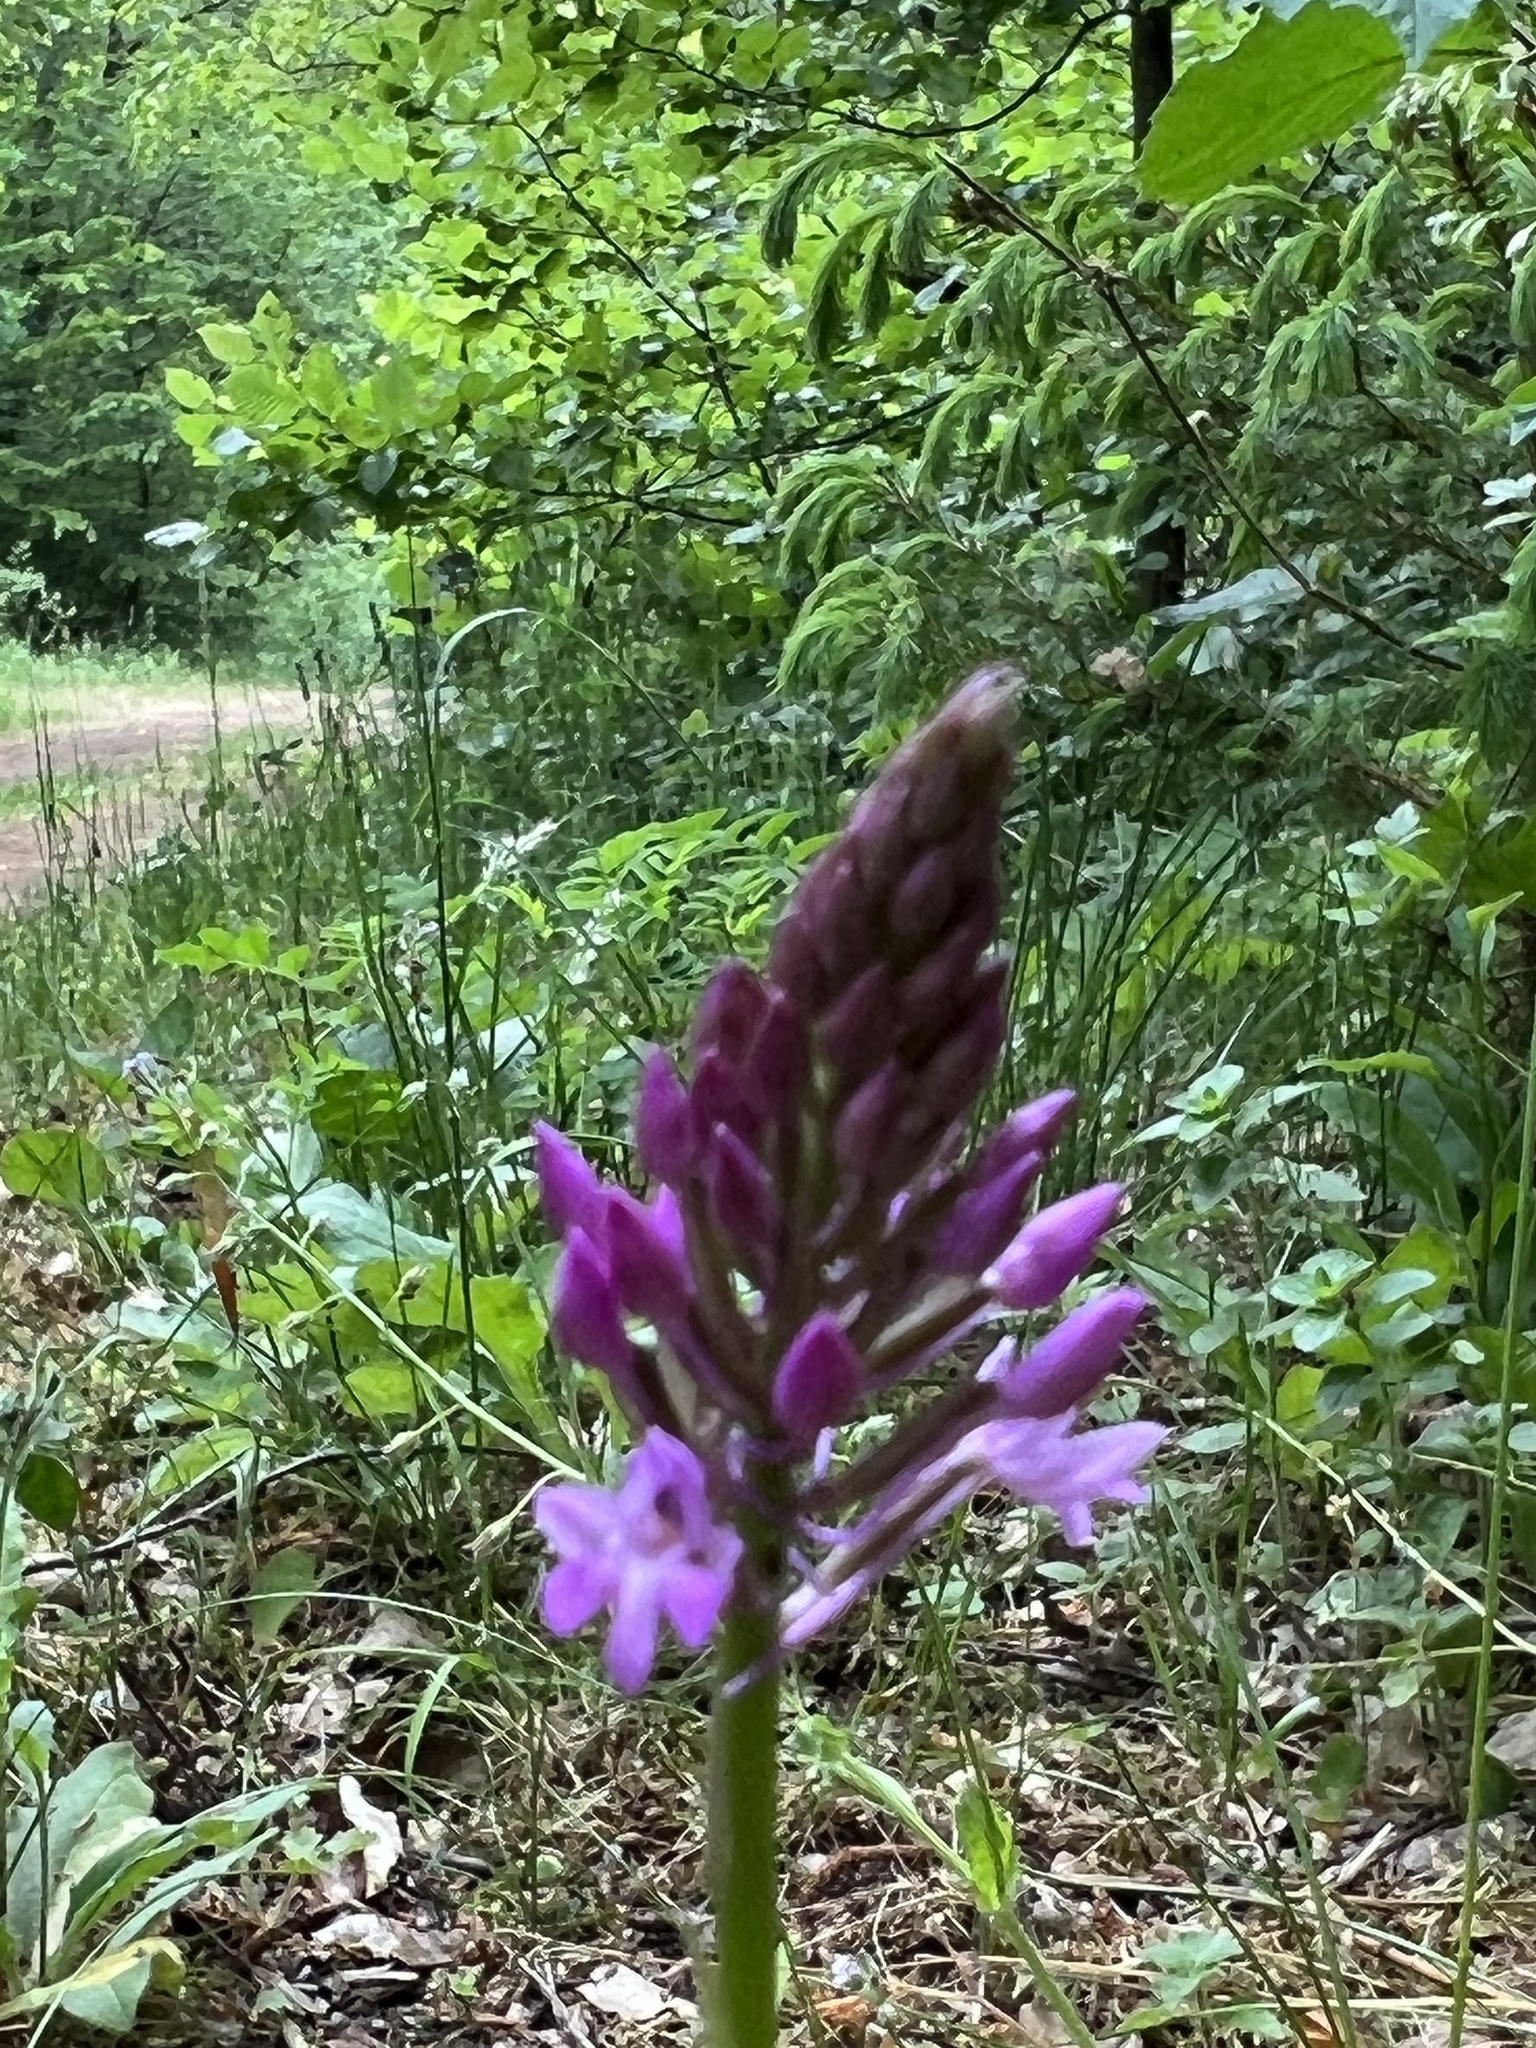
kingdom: Plantae
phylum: Tracheophyta
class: Liliopsida
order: Asparagales
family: Orchidaceae
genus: Anacamptis
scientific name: Anacamptis pyramidalis
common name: Pyramidal orchid
